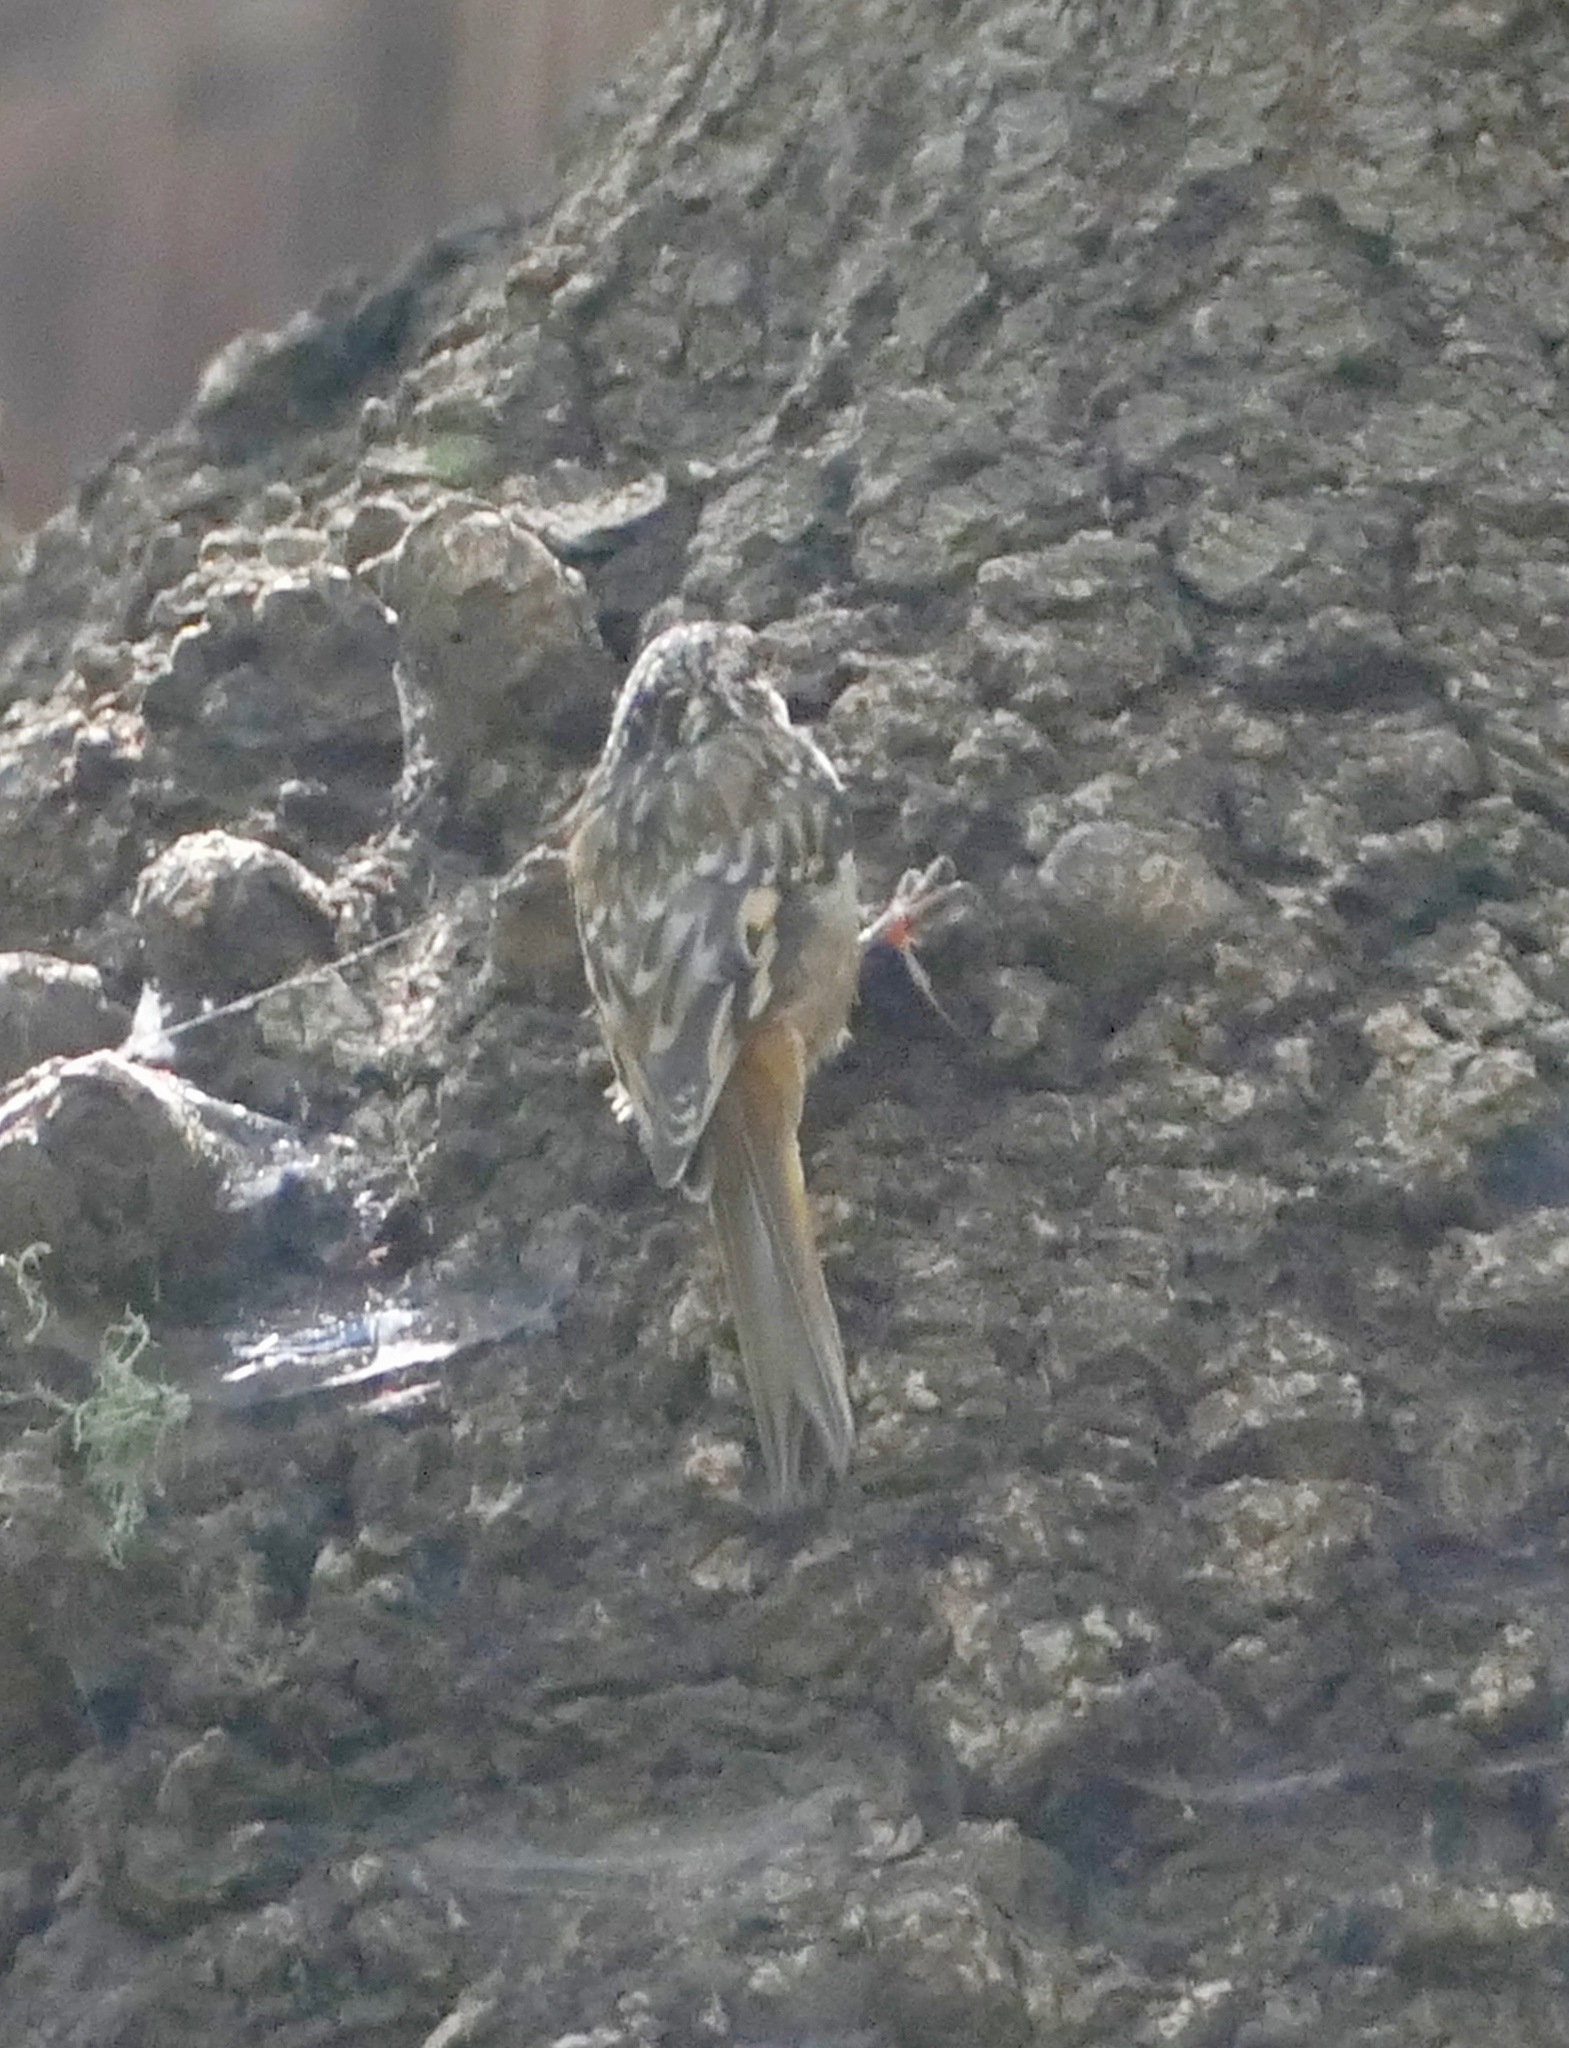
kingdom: Animalia
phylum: Chordata
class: Aves
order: Passeriformes
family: Certhiidae
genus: Certhia
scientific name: Certhia americana
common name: Brown creeper
